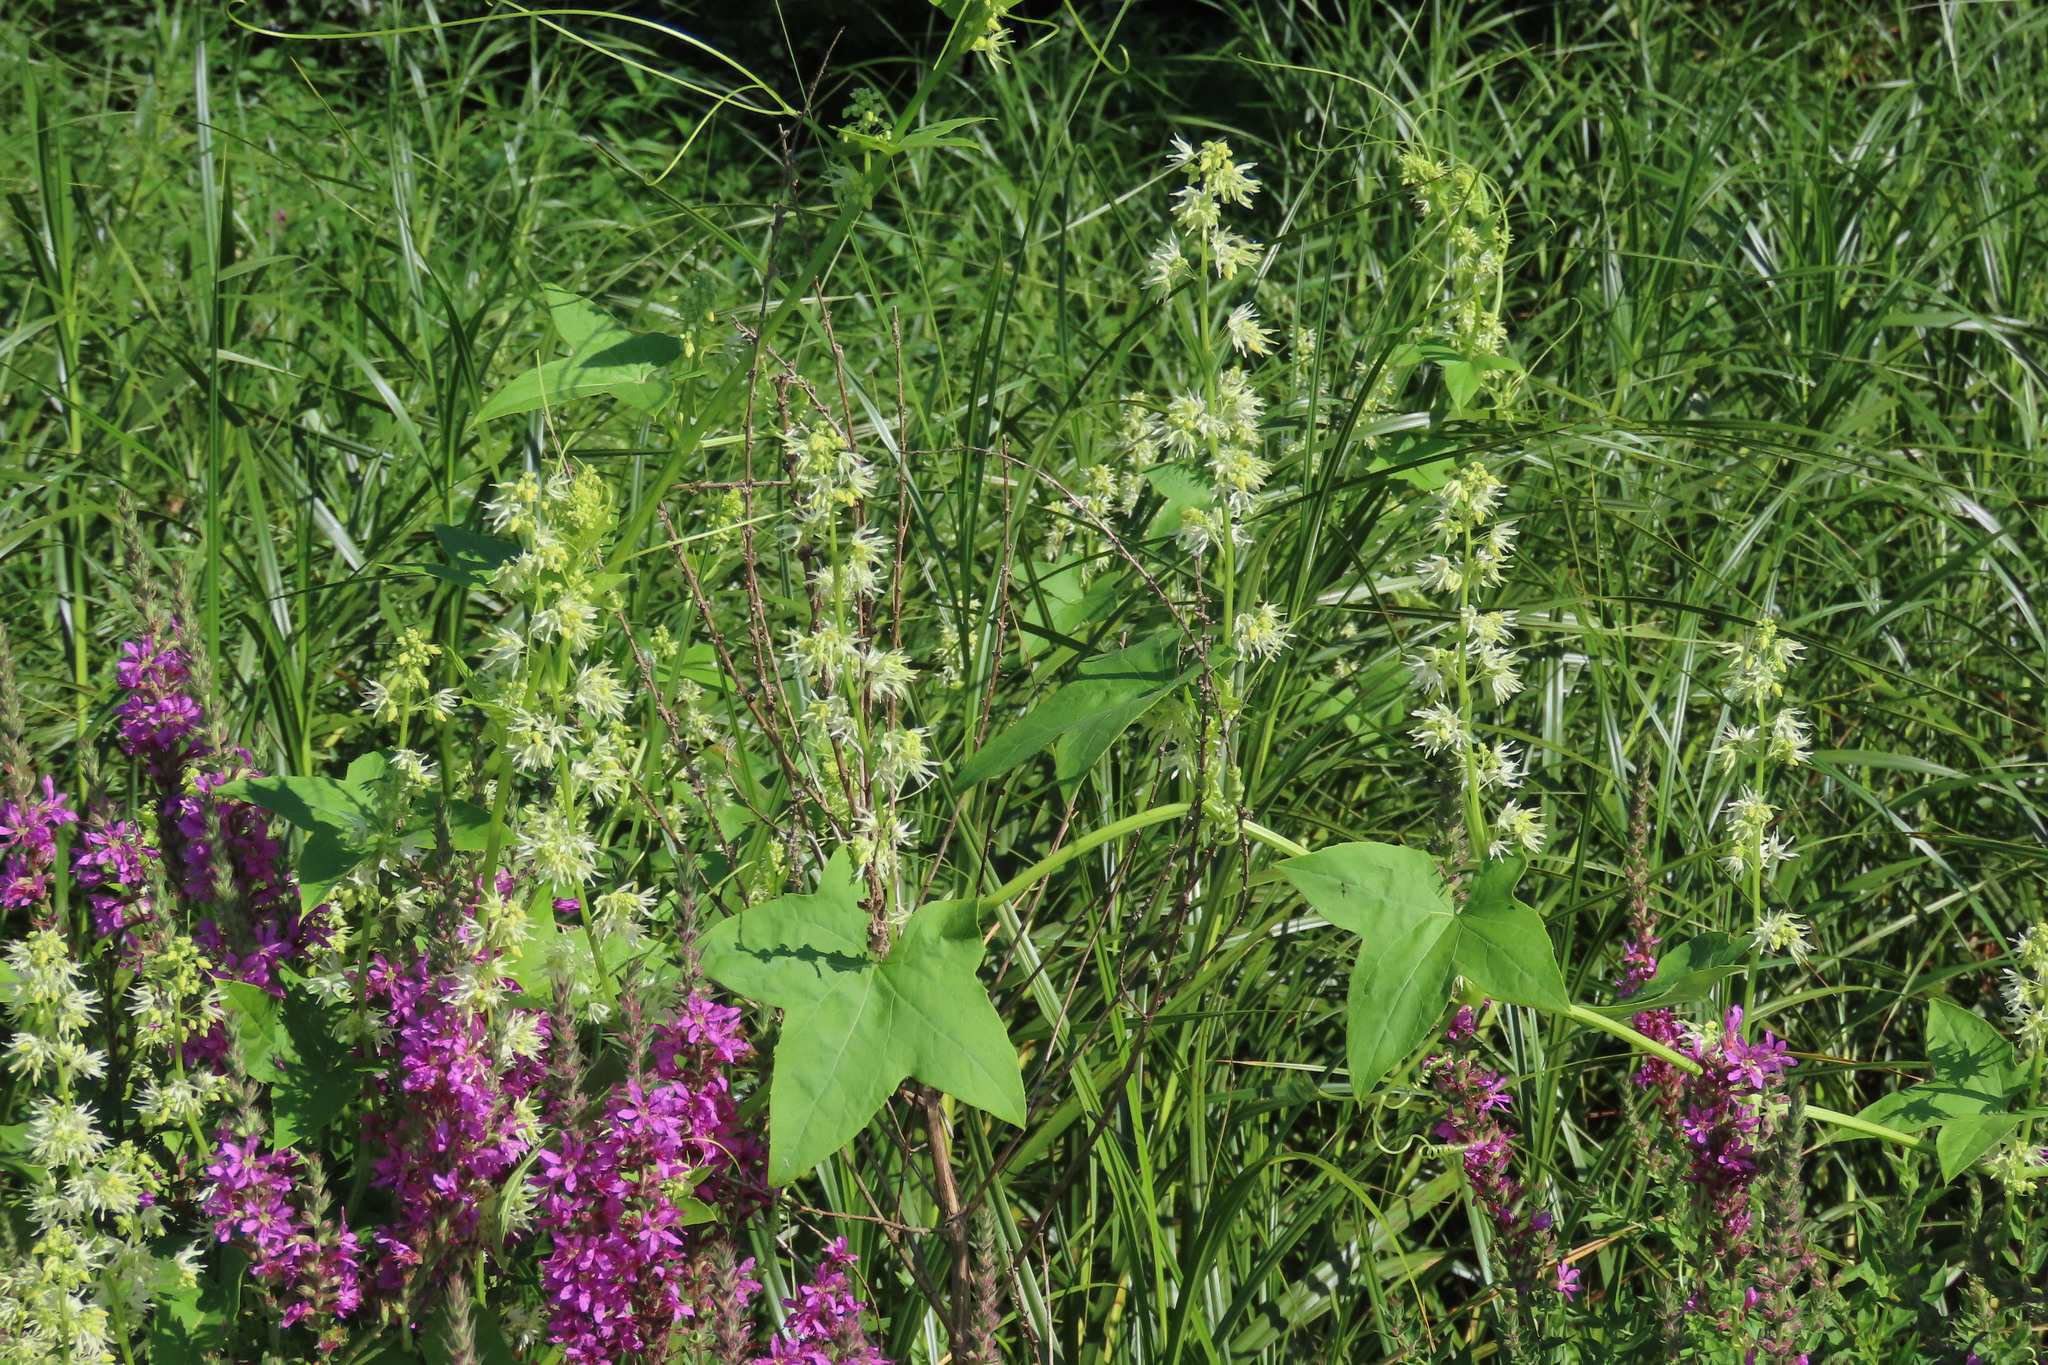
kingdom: Plantae
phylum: Tracheophyta
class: Magnoliopsida
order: Cucurbitales
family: Cucurbitaceae
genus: Echinocystis
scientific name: Echinocystis lobata
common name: Wild cucumber
